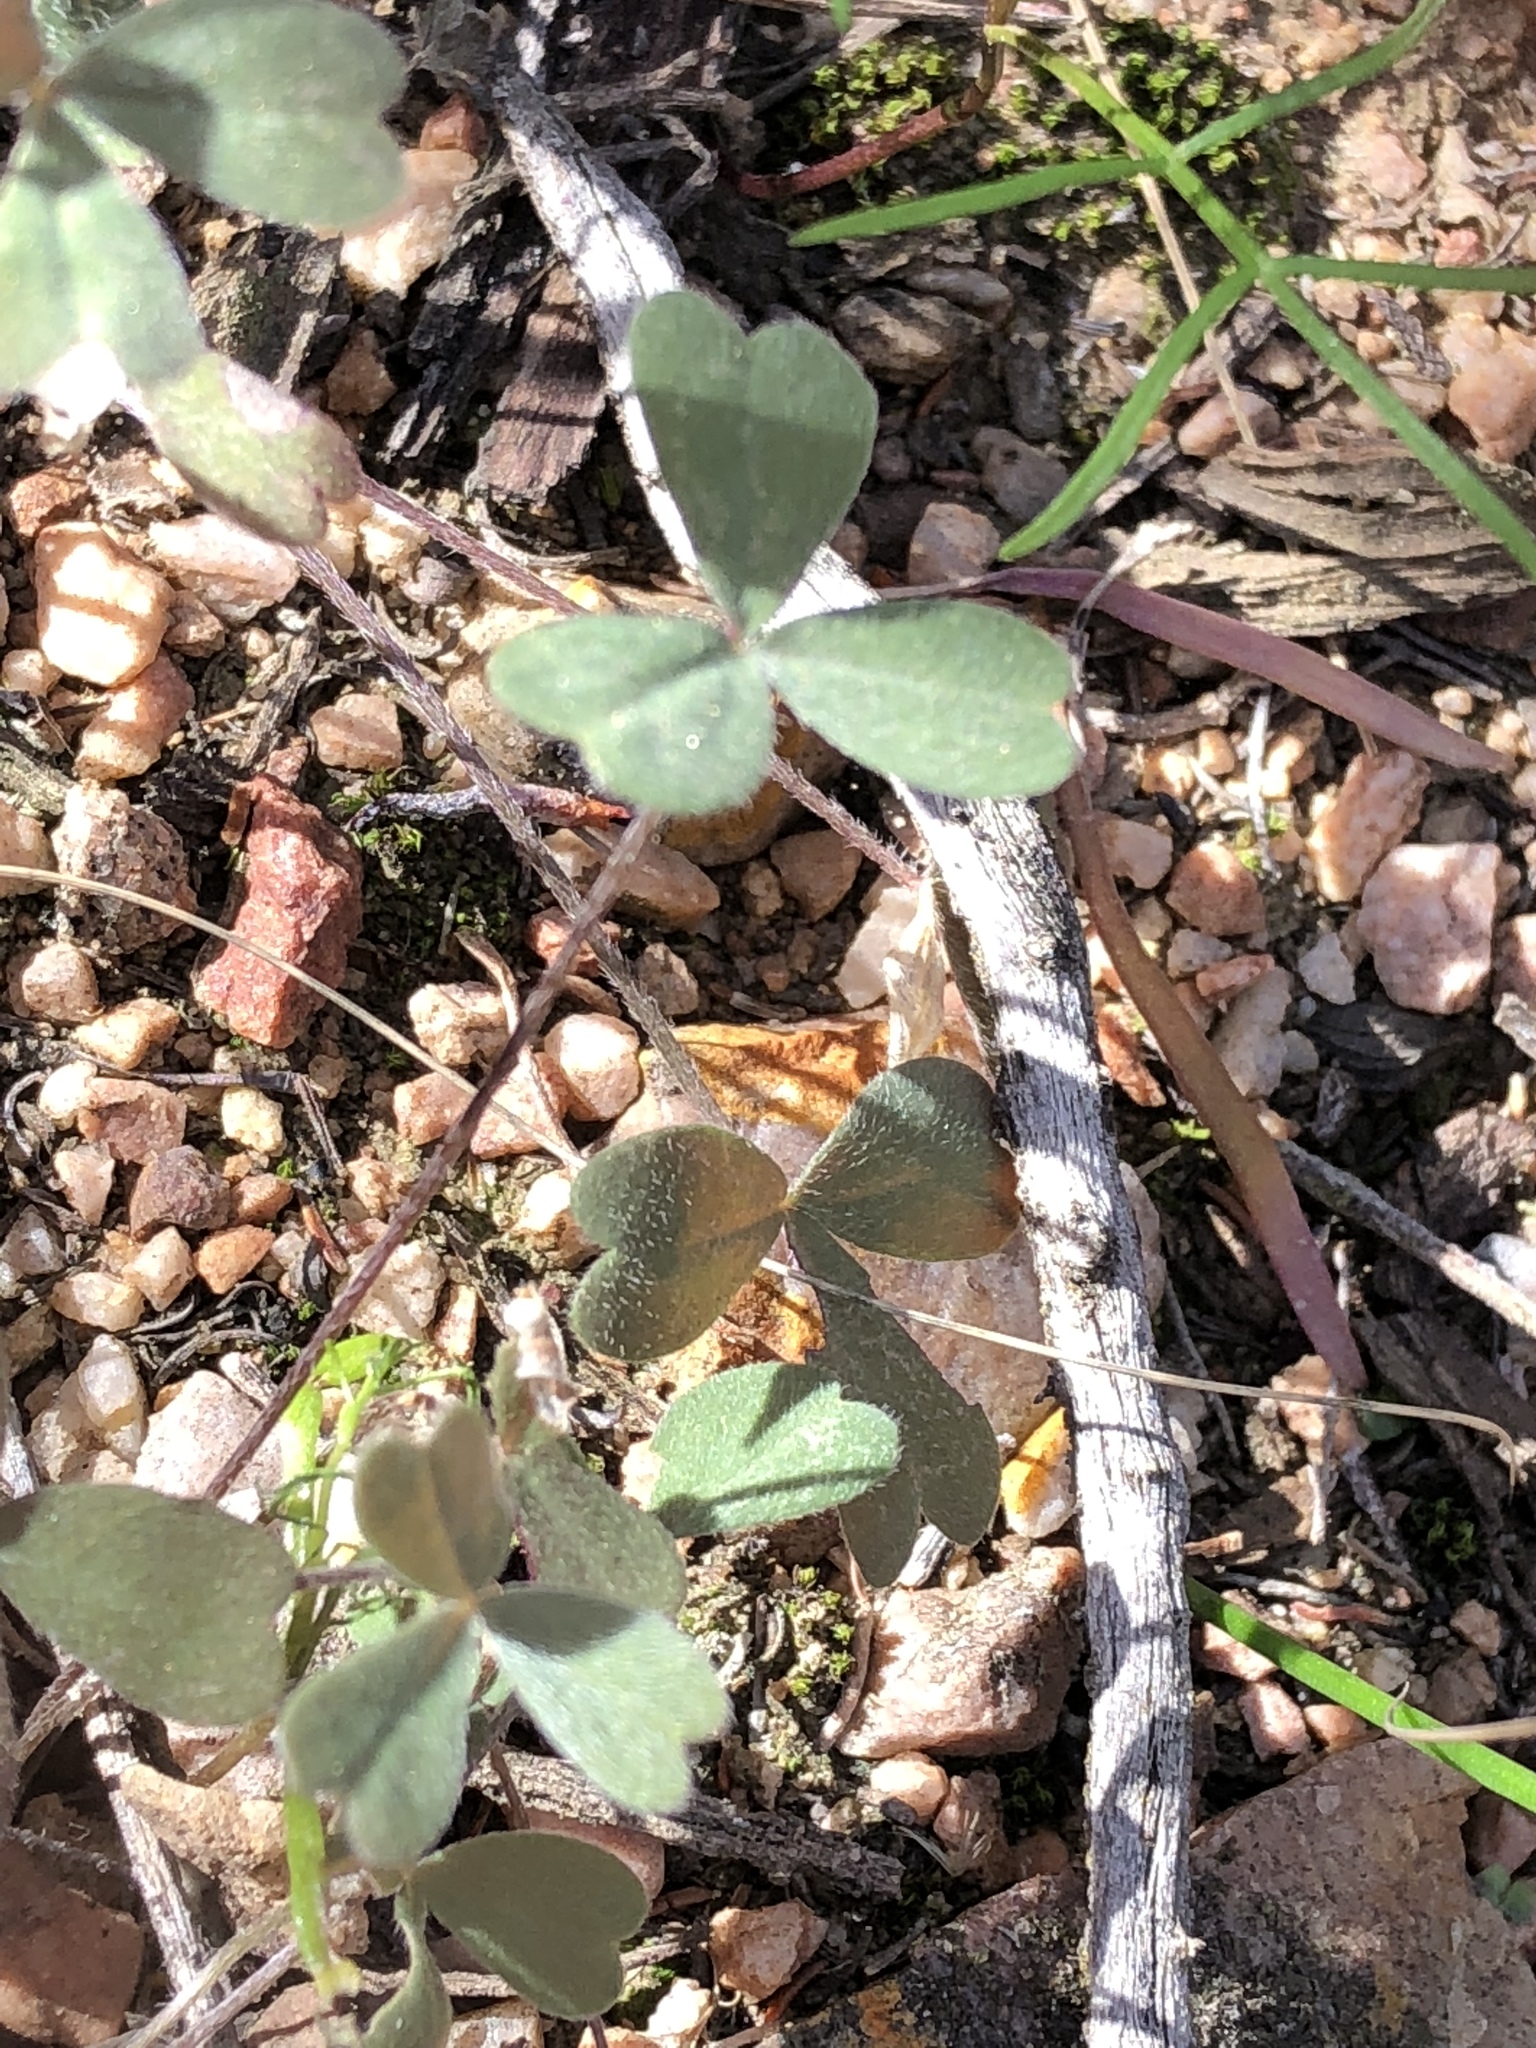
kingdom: Plantae
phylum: Tracheophyta
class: Magnoliopsida
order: Oxalidales
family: Oxalidaceae
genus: Oxalis
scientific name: Oxalis obtusa
